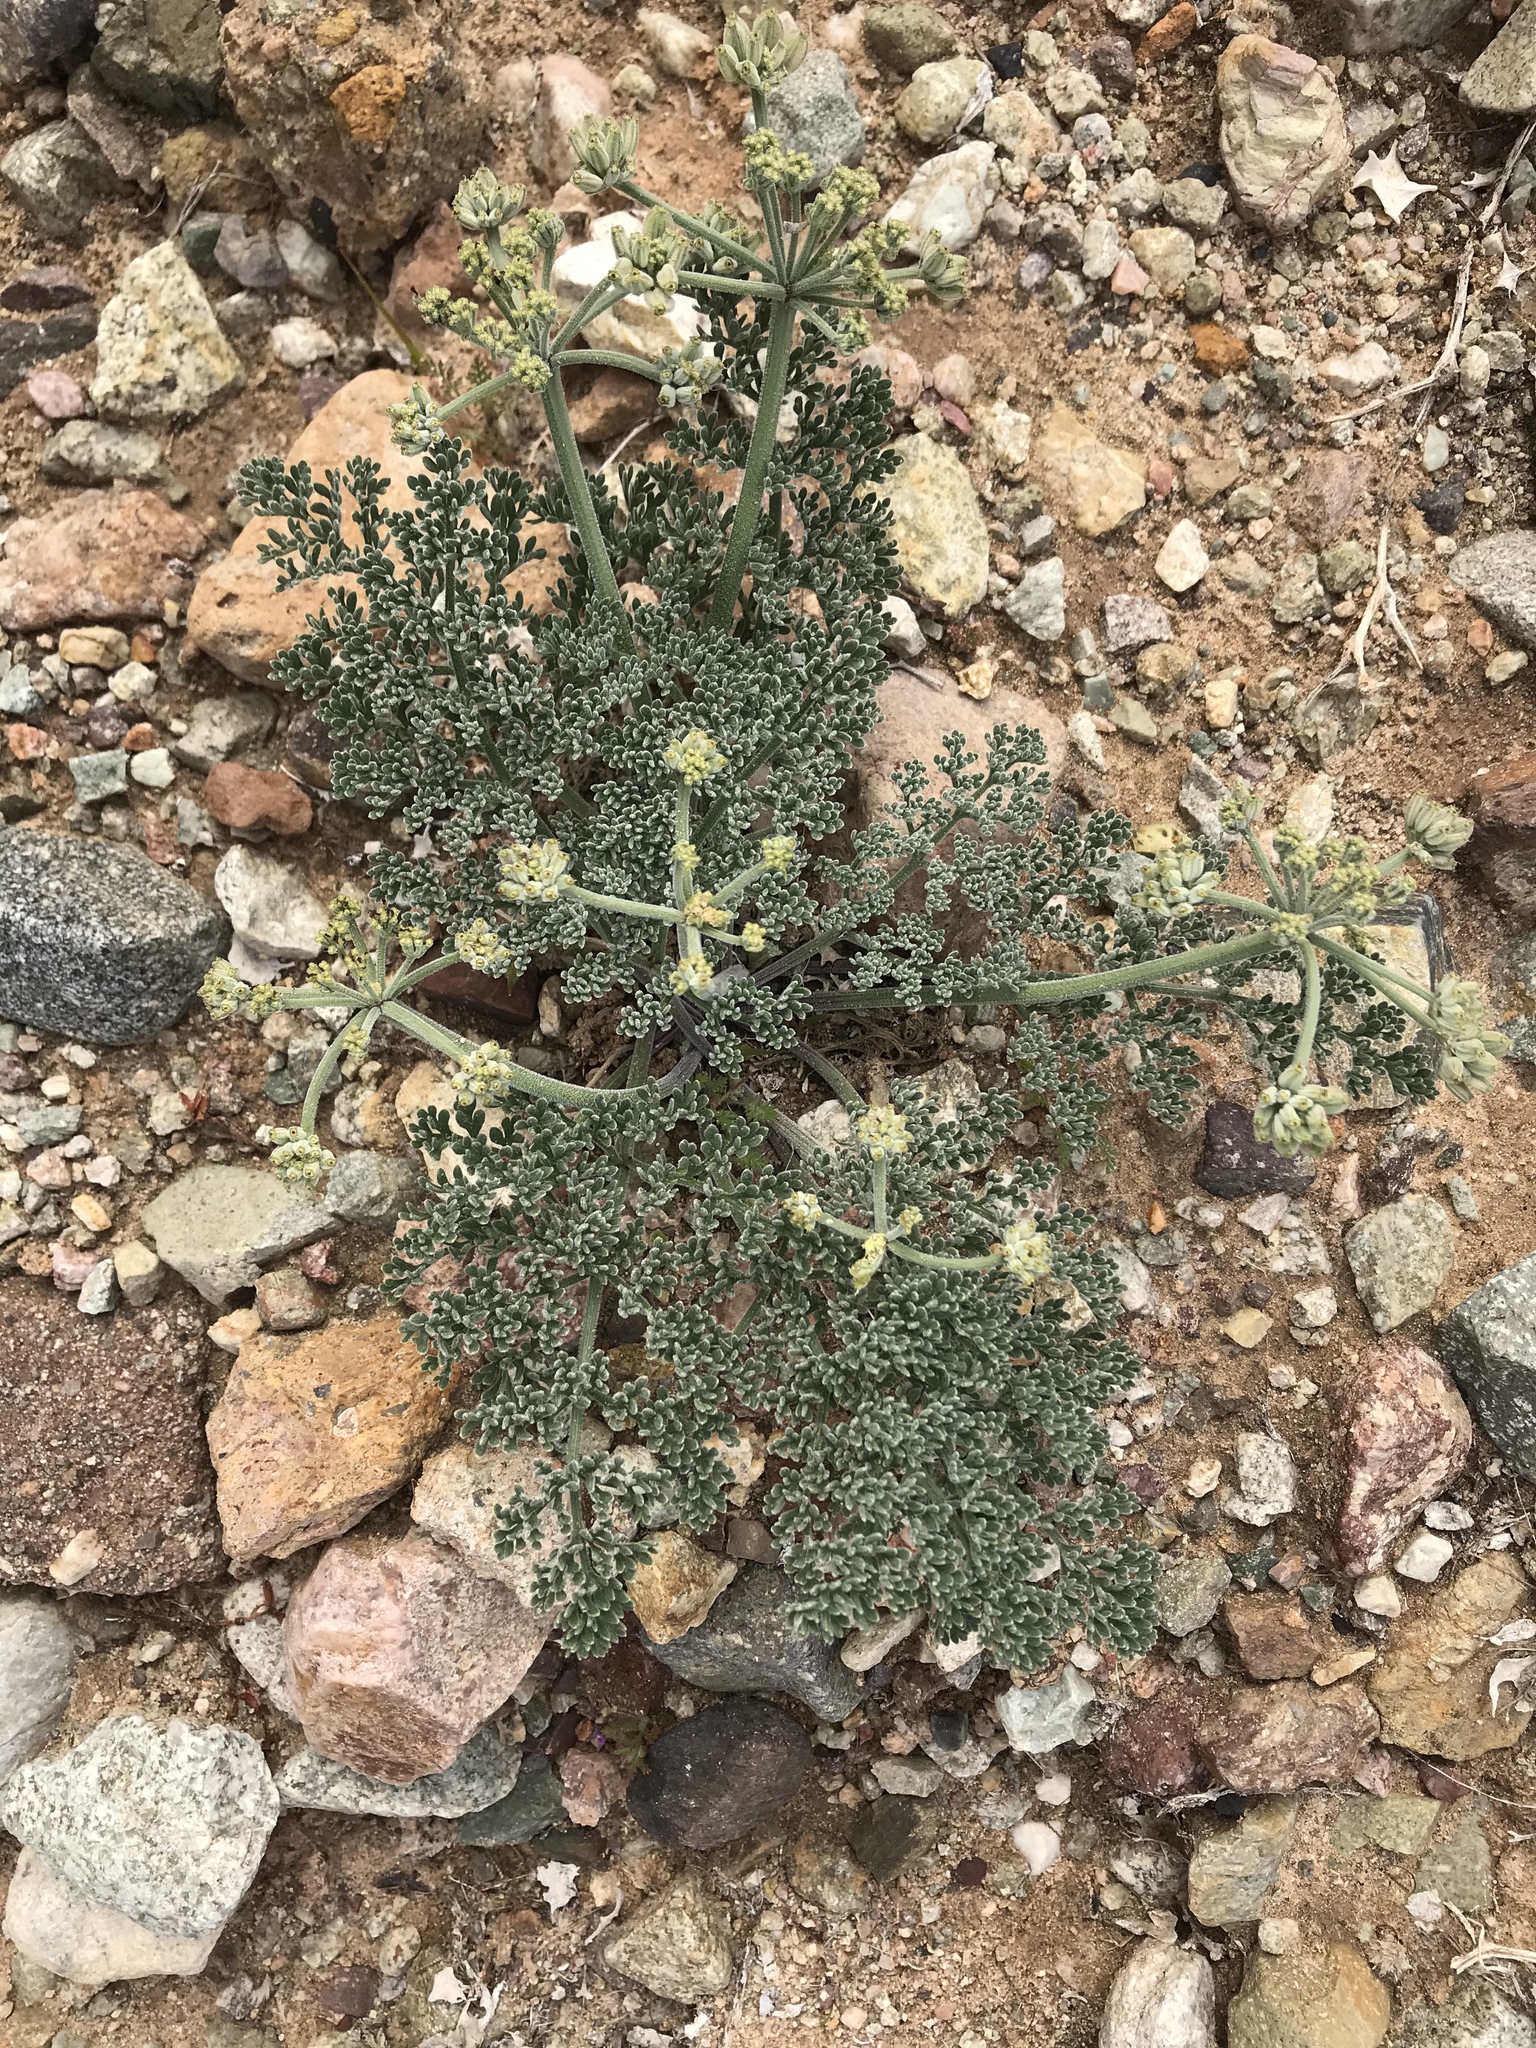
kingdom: Plantae
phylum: Tracheophyta
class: Magnoliopsida
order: Apiales
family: Apiaceae
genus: Lomatium
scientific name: Lomatium mohavense
